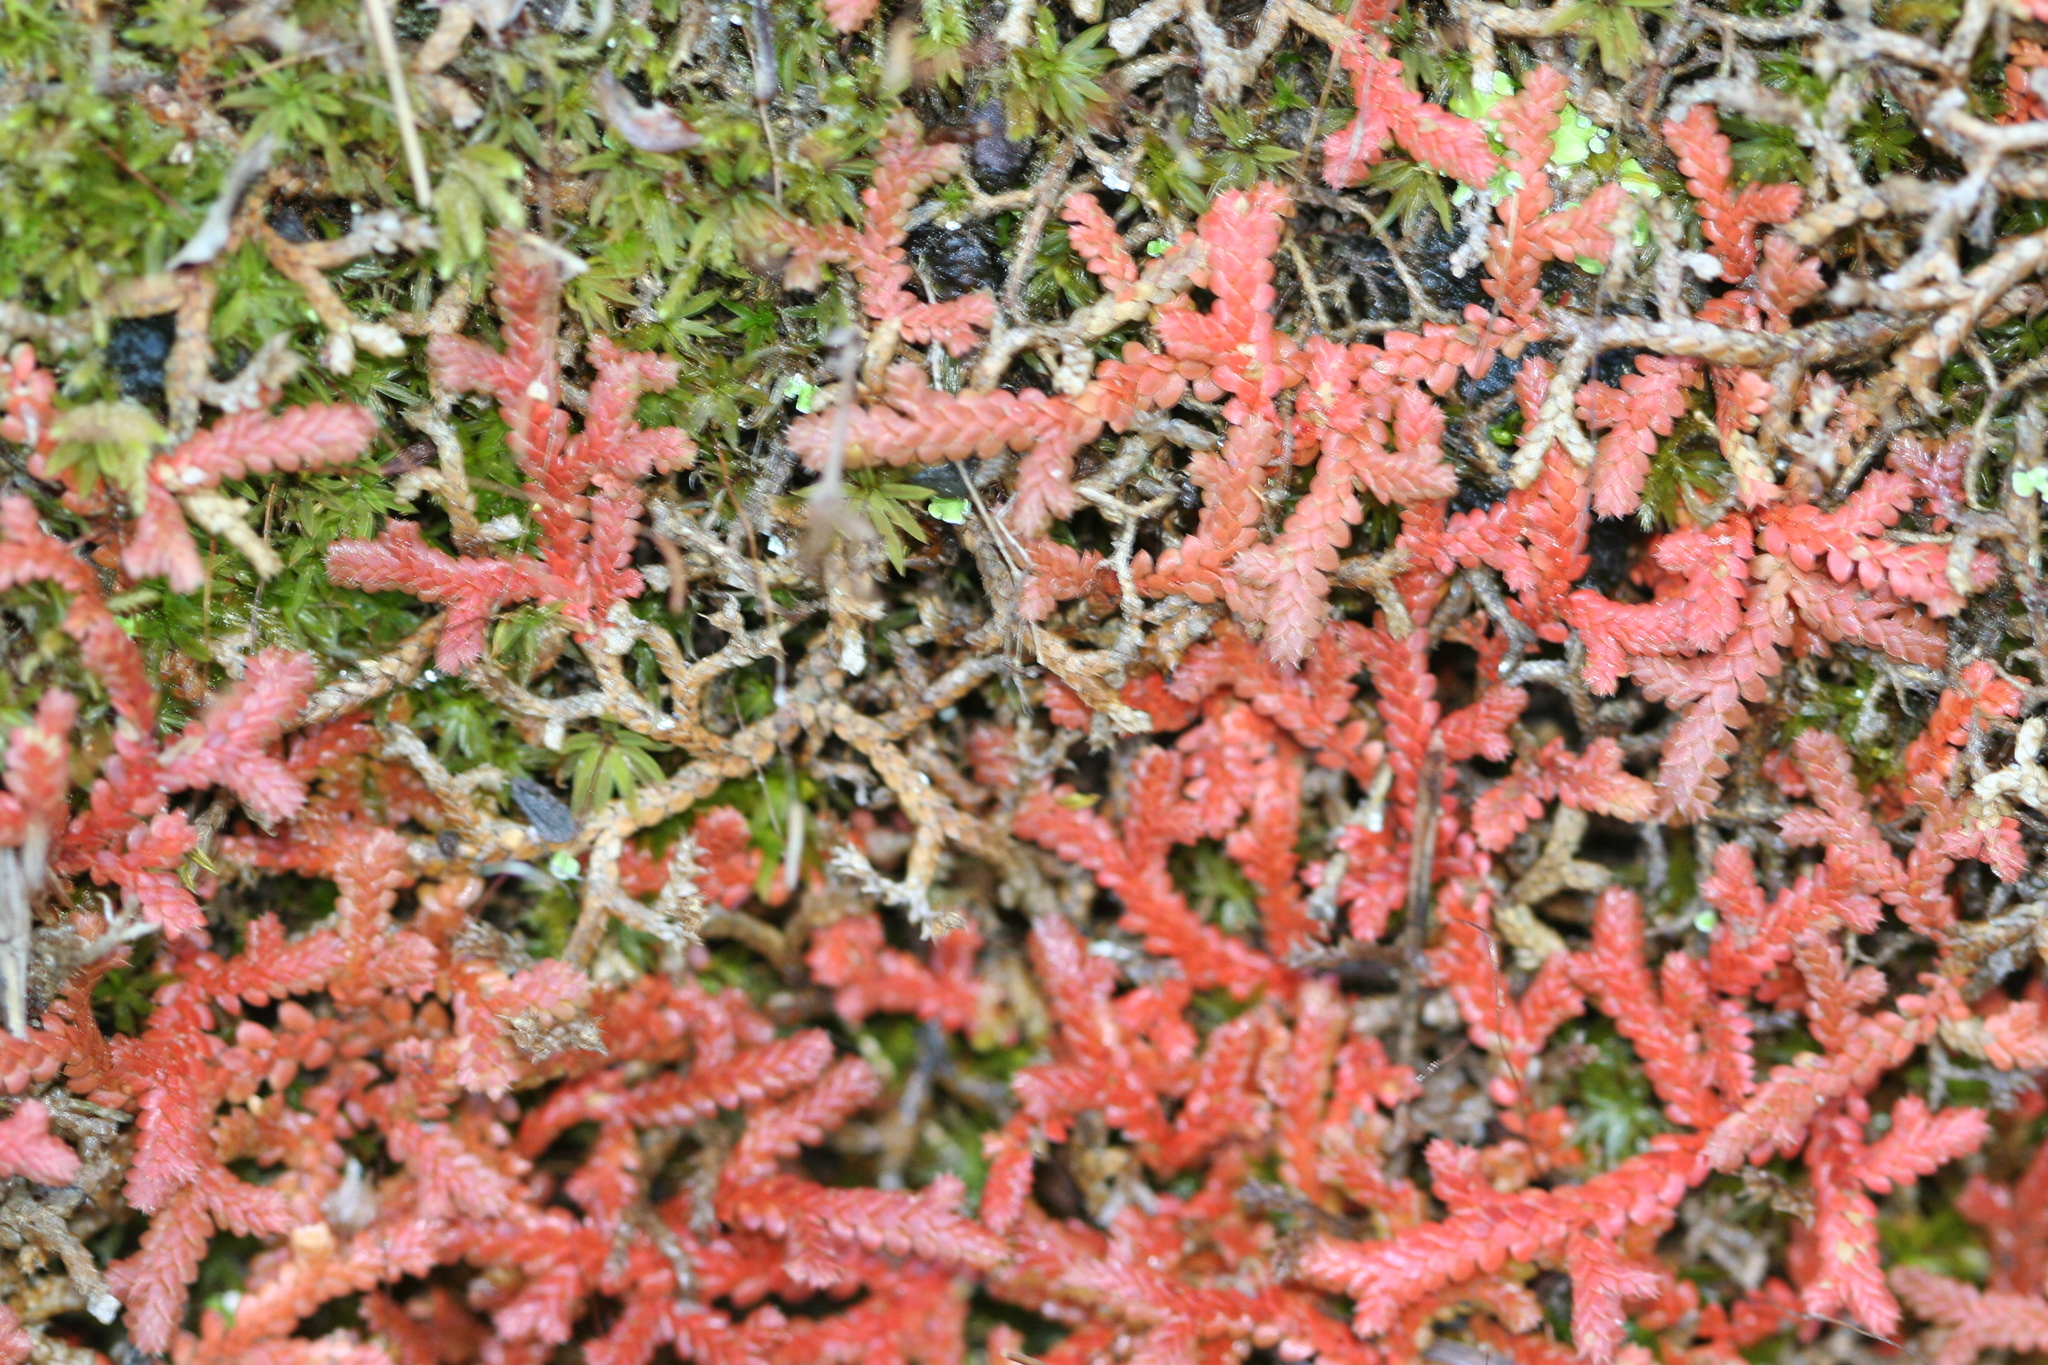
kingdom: Plantae
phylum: Tracheophyta
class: Lycopodiopsida
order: Selaginellales
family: Selaginellaceae
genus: Selaginella
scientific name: Selaginella denticulata
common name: Toothed-leaved clubmoss
